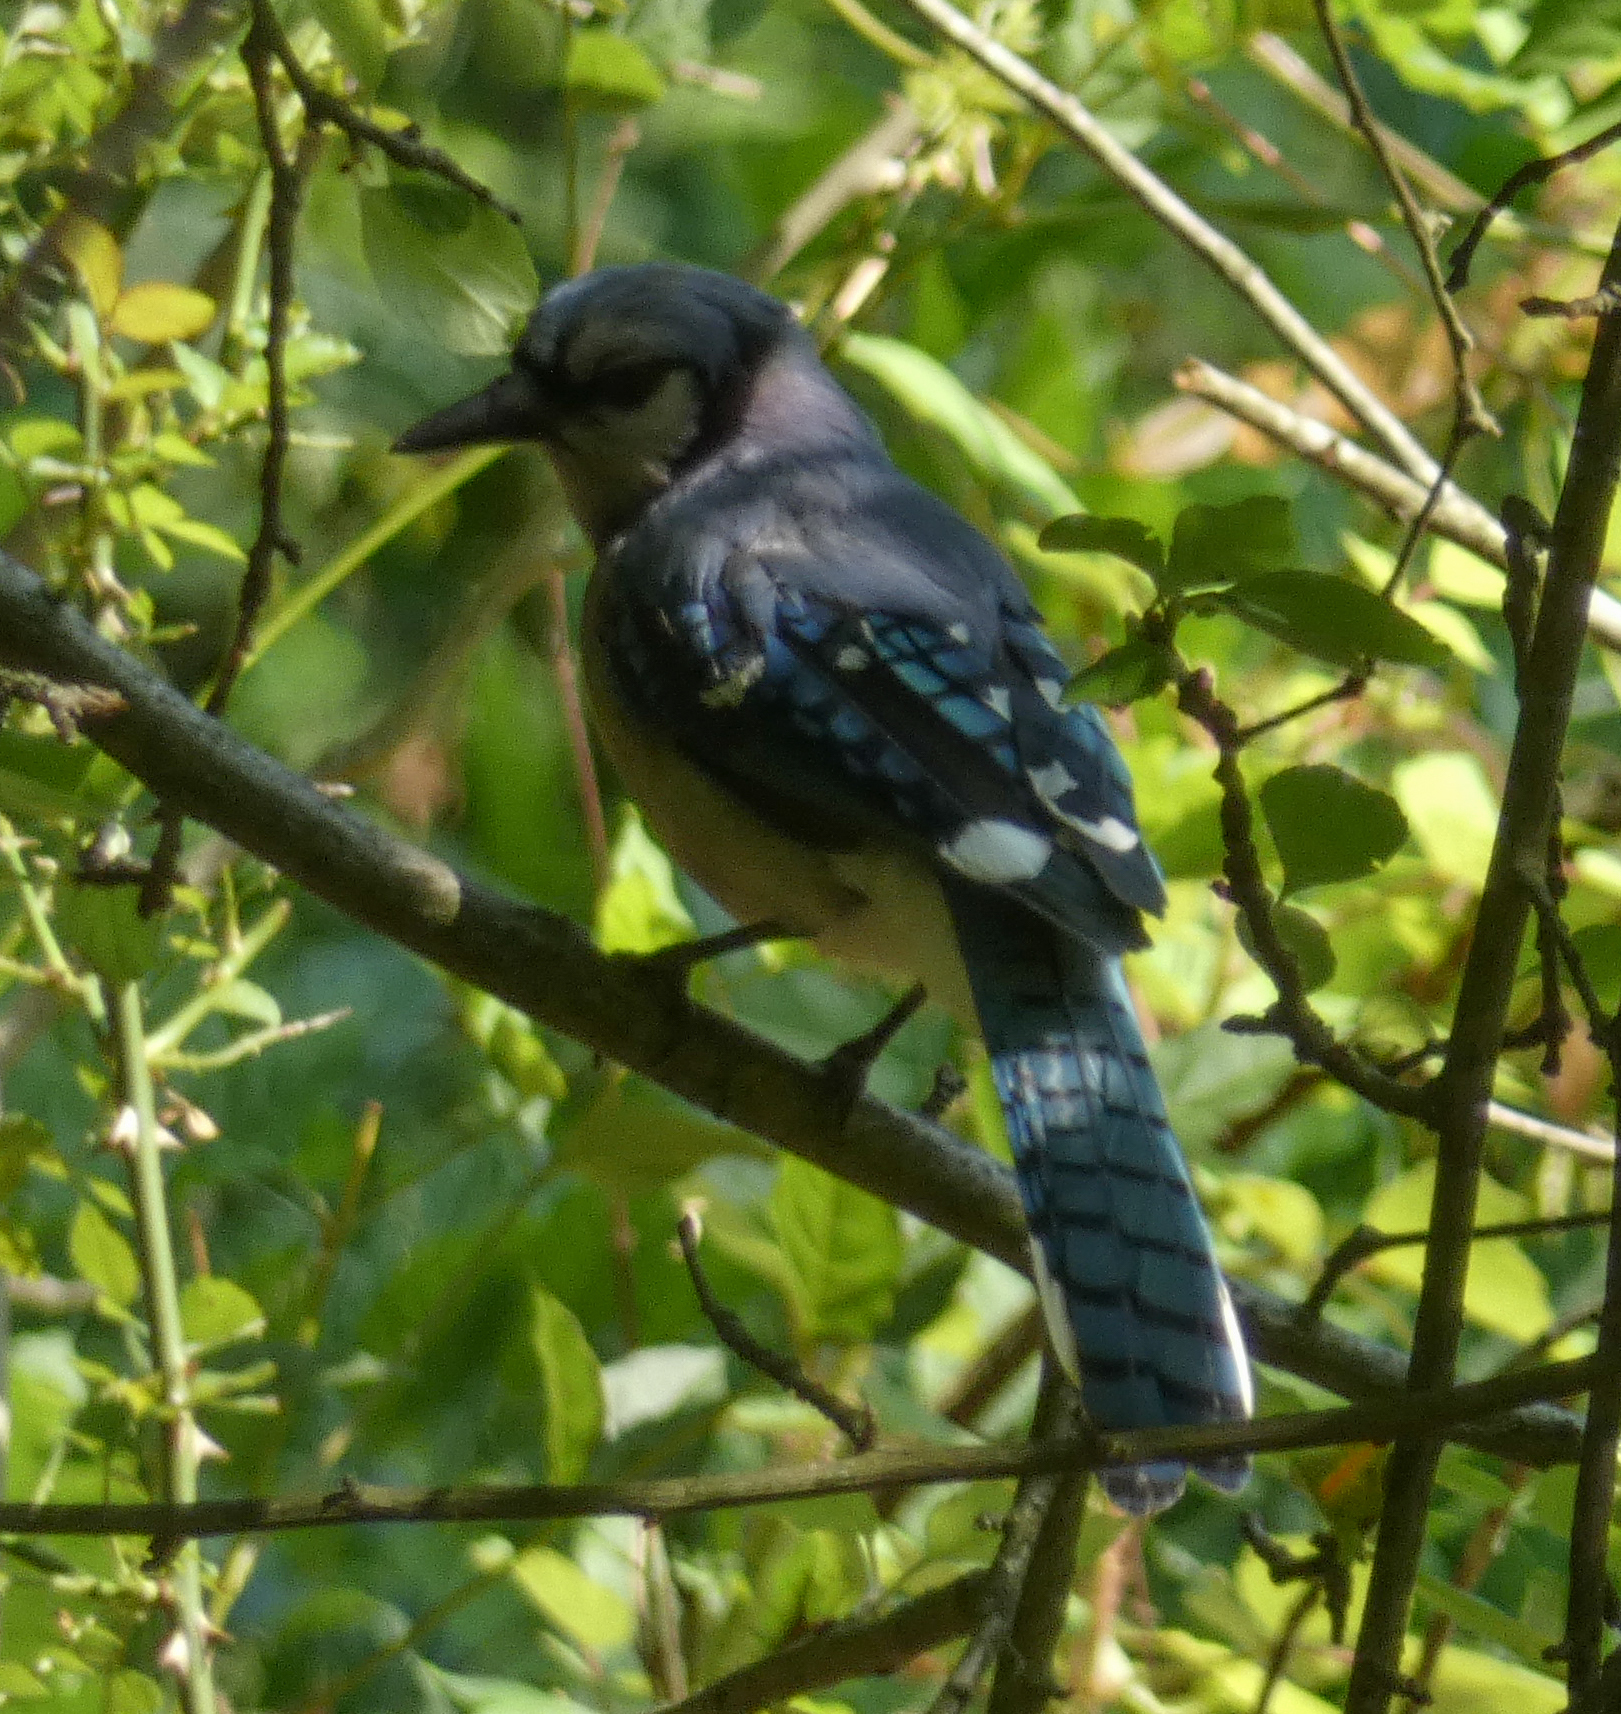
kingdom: Animalia
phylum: Chordata
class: Aves
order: Passeriformes
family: Corvidae
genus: Cyanocitta
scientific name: Cyanocitta cristata
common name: Blue jay
